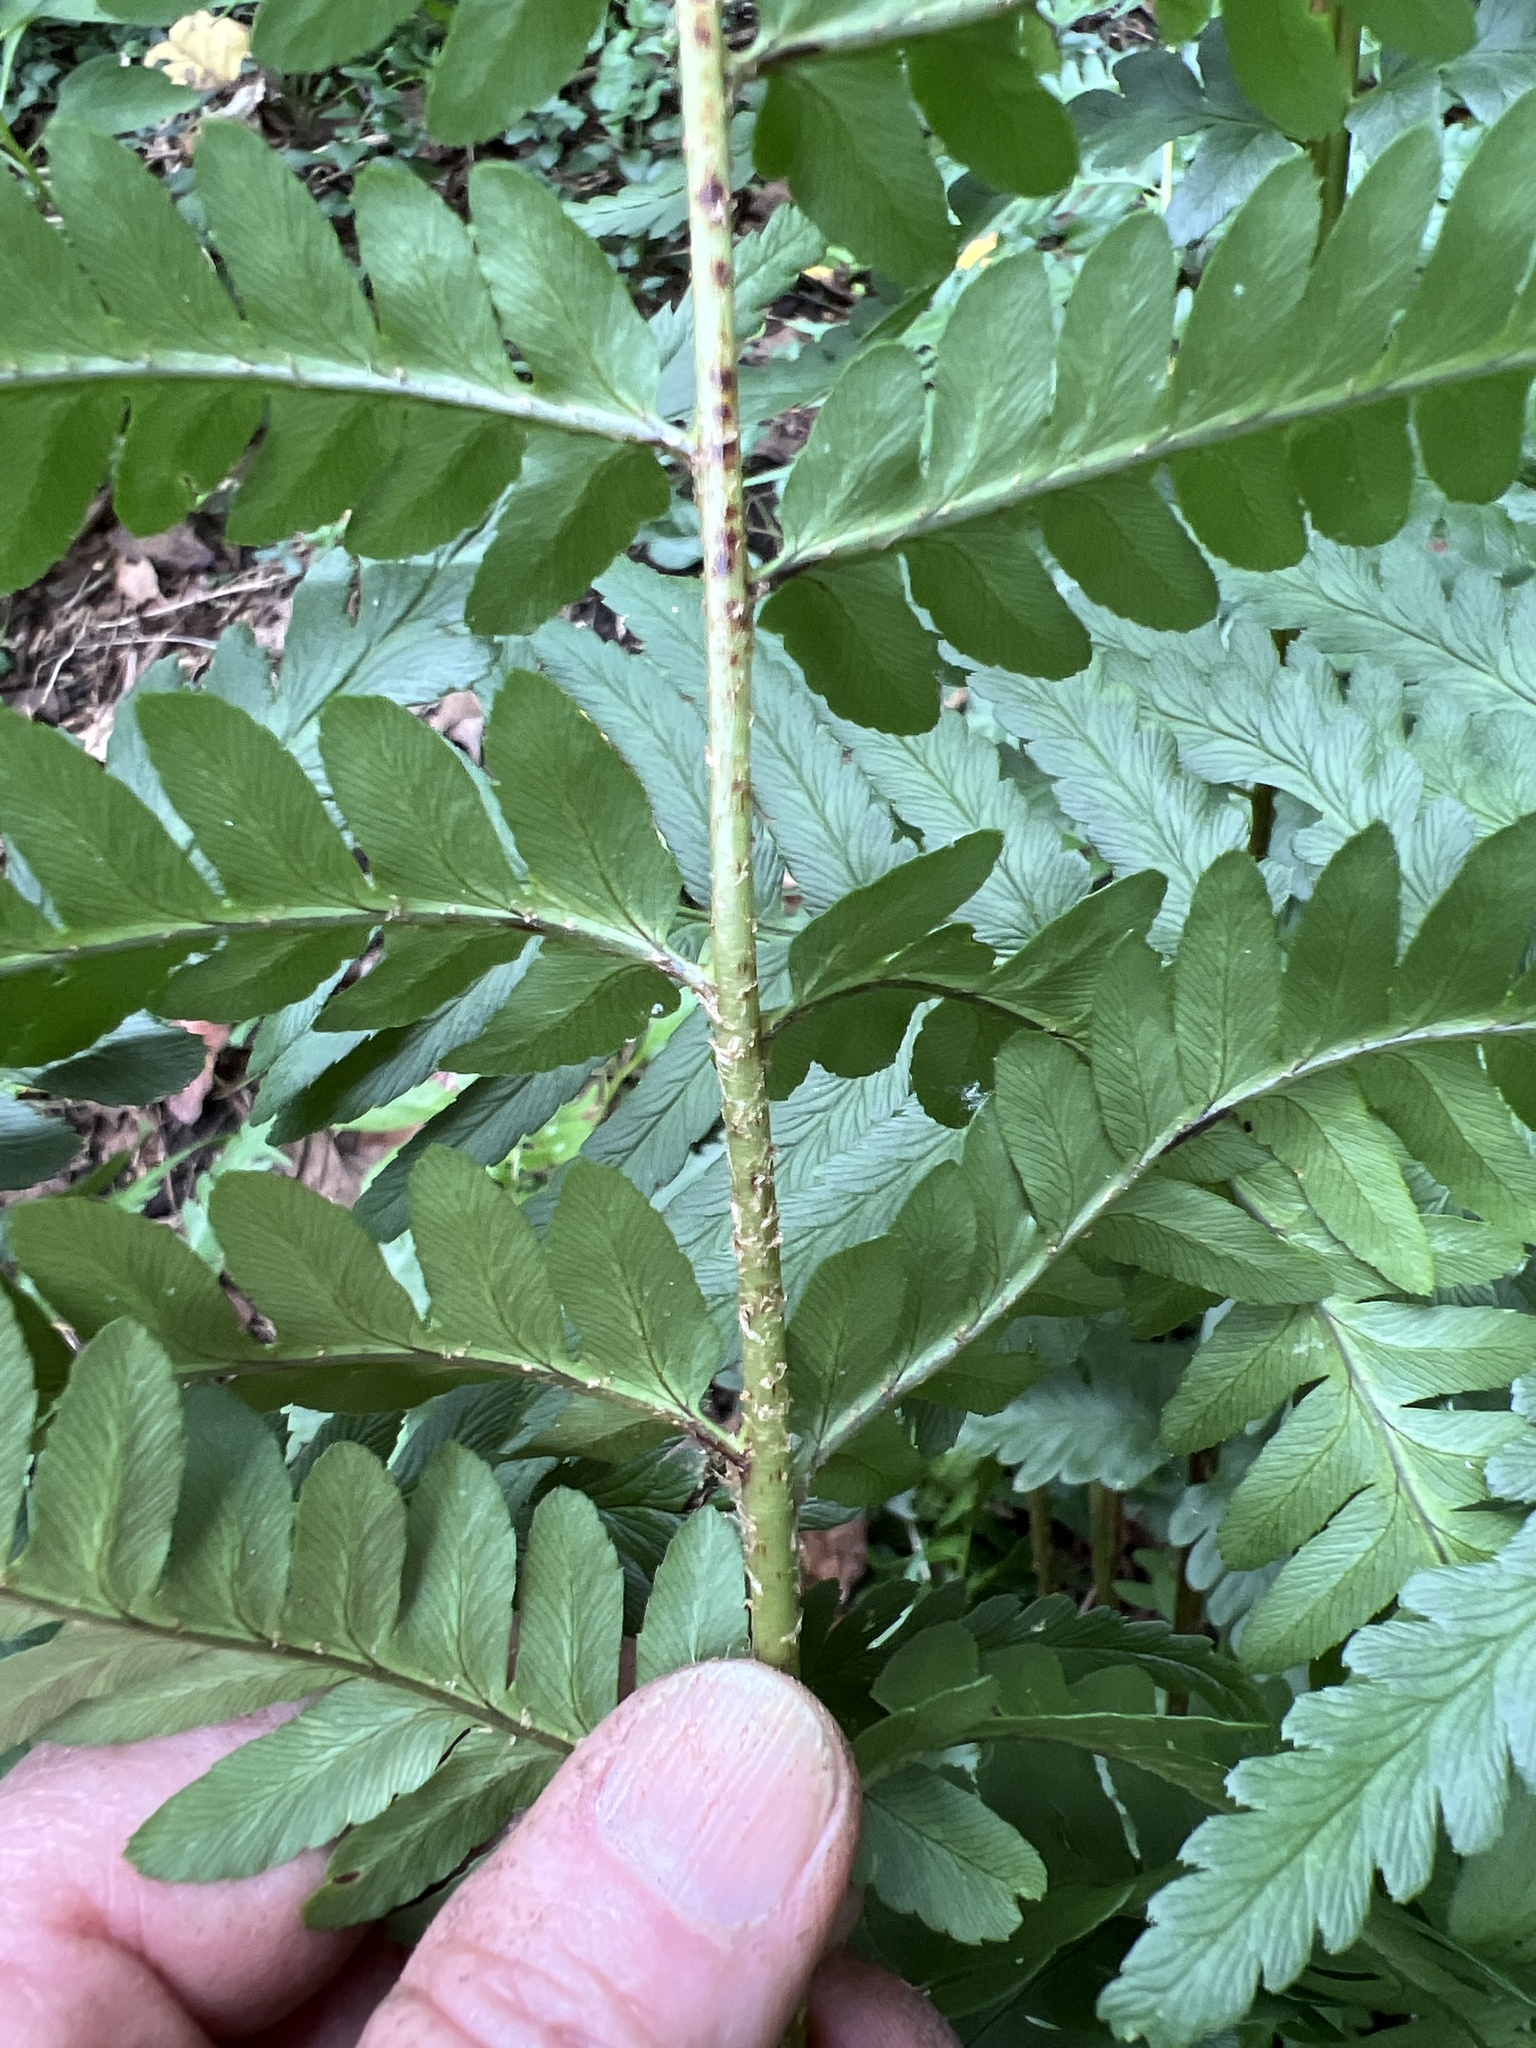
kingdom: Plantae
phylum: Tracheophyta
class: Polypodiopsida
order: Polypodiales
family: Dryopteridaceae
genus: Dryopteris
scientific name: Dryopteris australis
